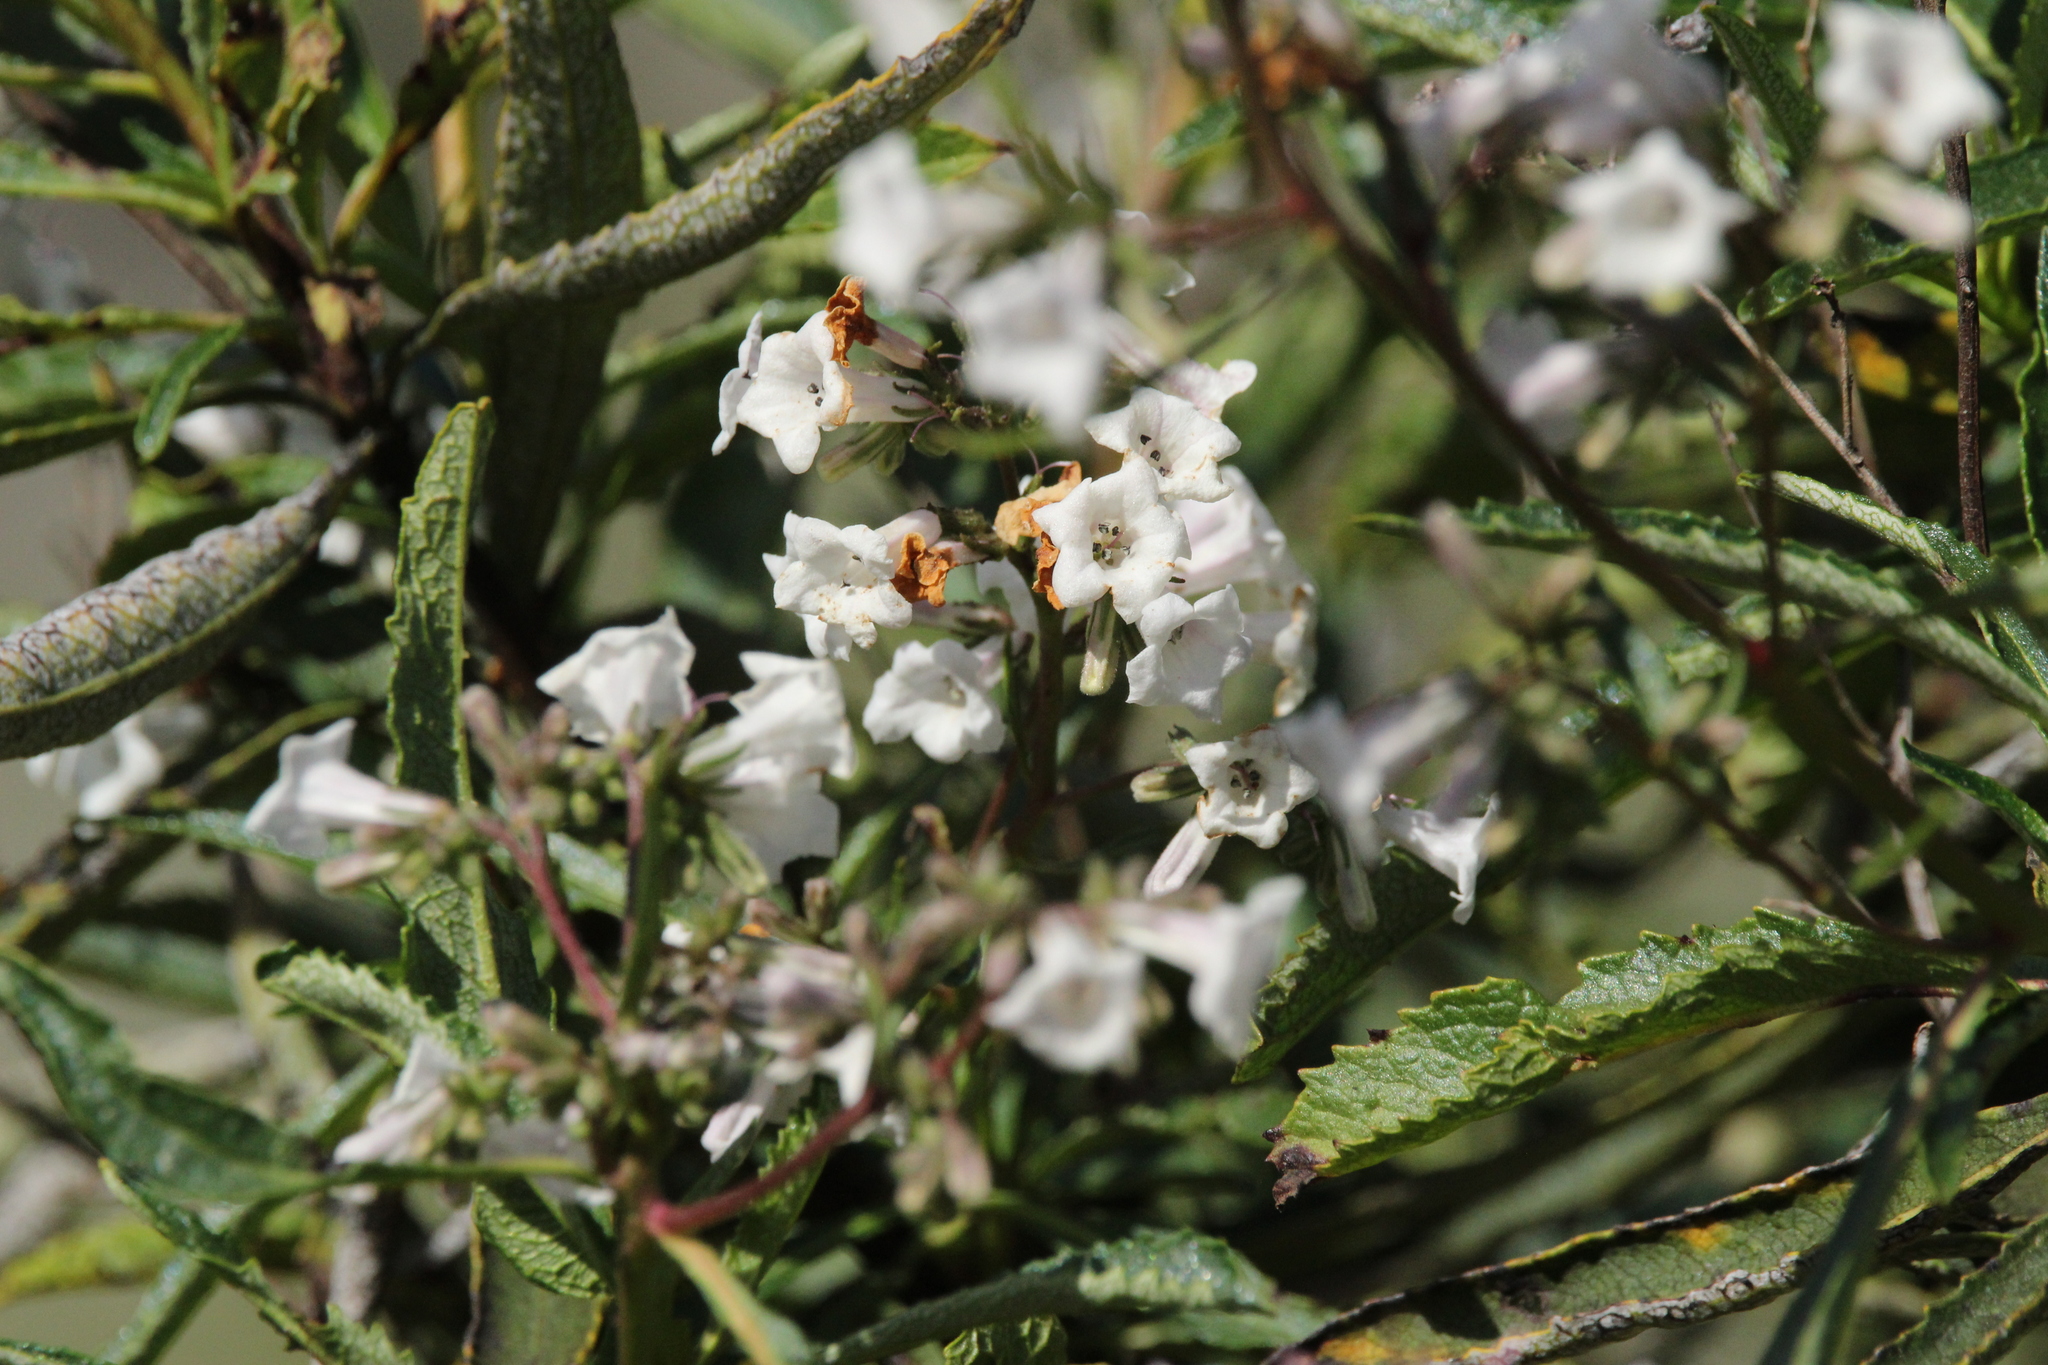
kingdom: Plantae
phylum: Tracheophyta
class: Magnoliopsida
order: Boraginales
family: Namaceae
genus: Eriodictyon
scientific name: Eriodictyon californicum
